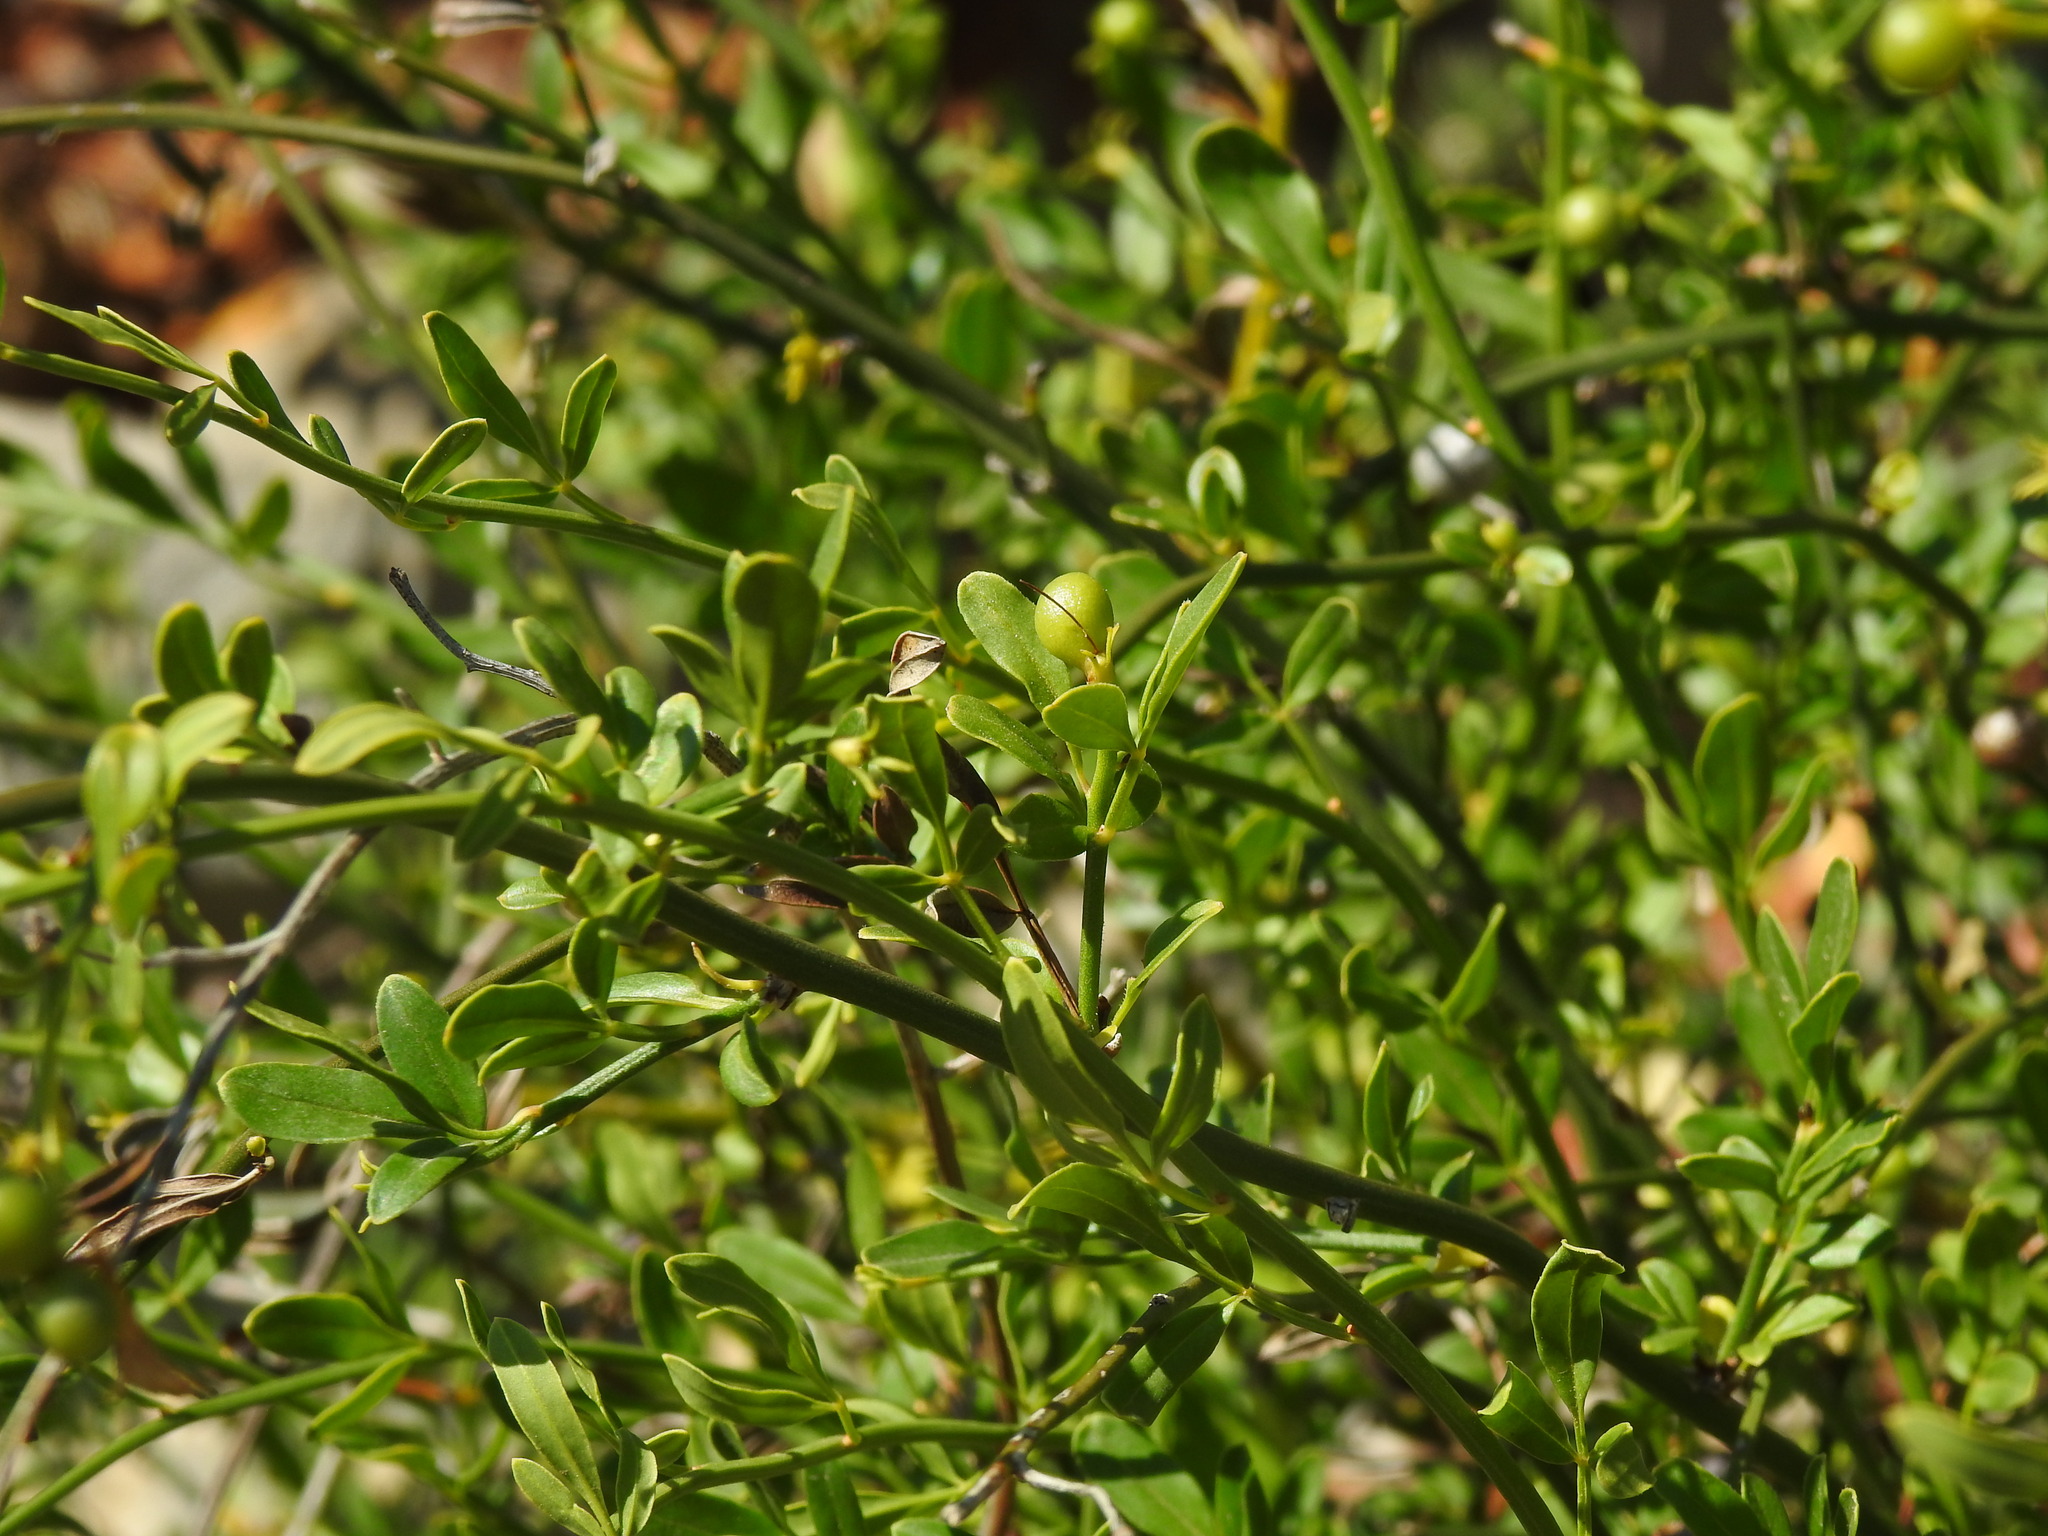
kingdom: Plantae
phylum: Tracheophyta
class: Magnoliopsida
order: Lamiales
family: Oleaceae
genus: Chrysojasminum
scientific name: Chrysojasminum fruticans
